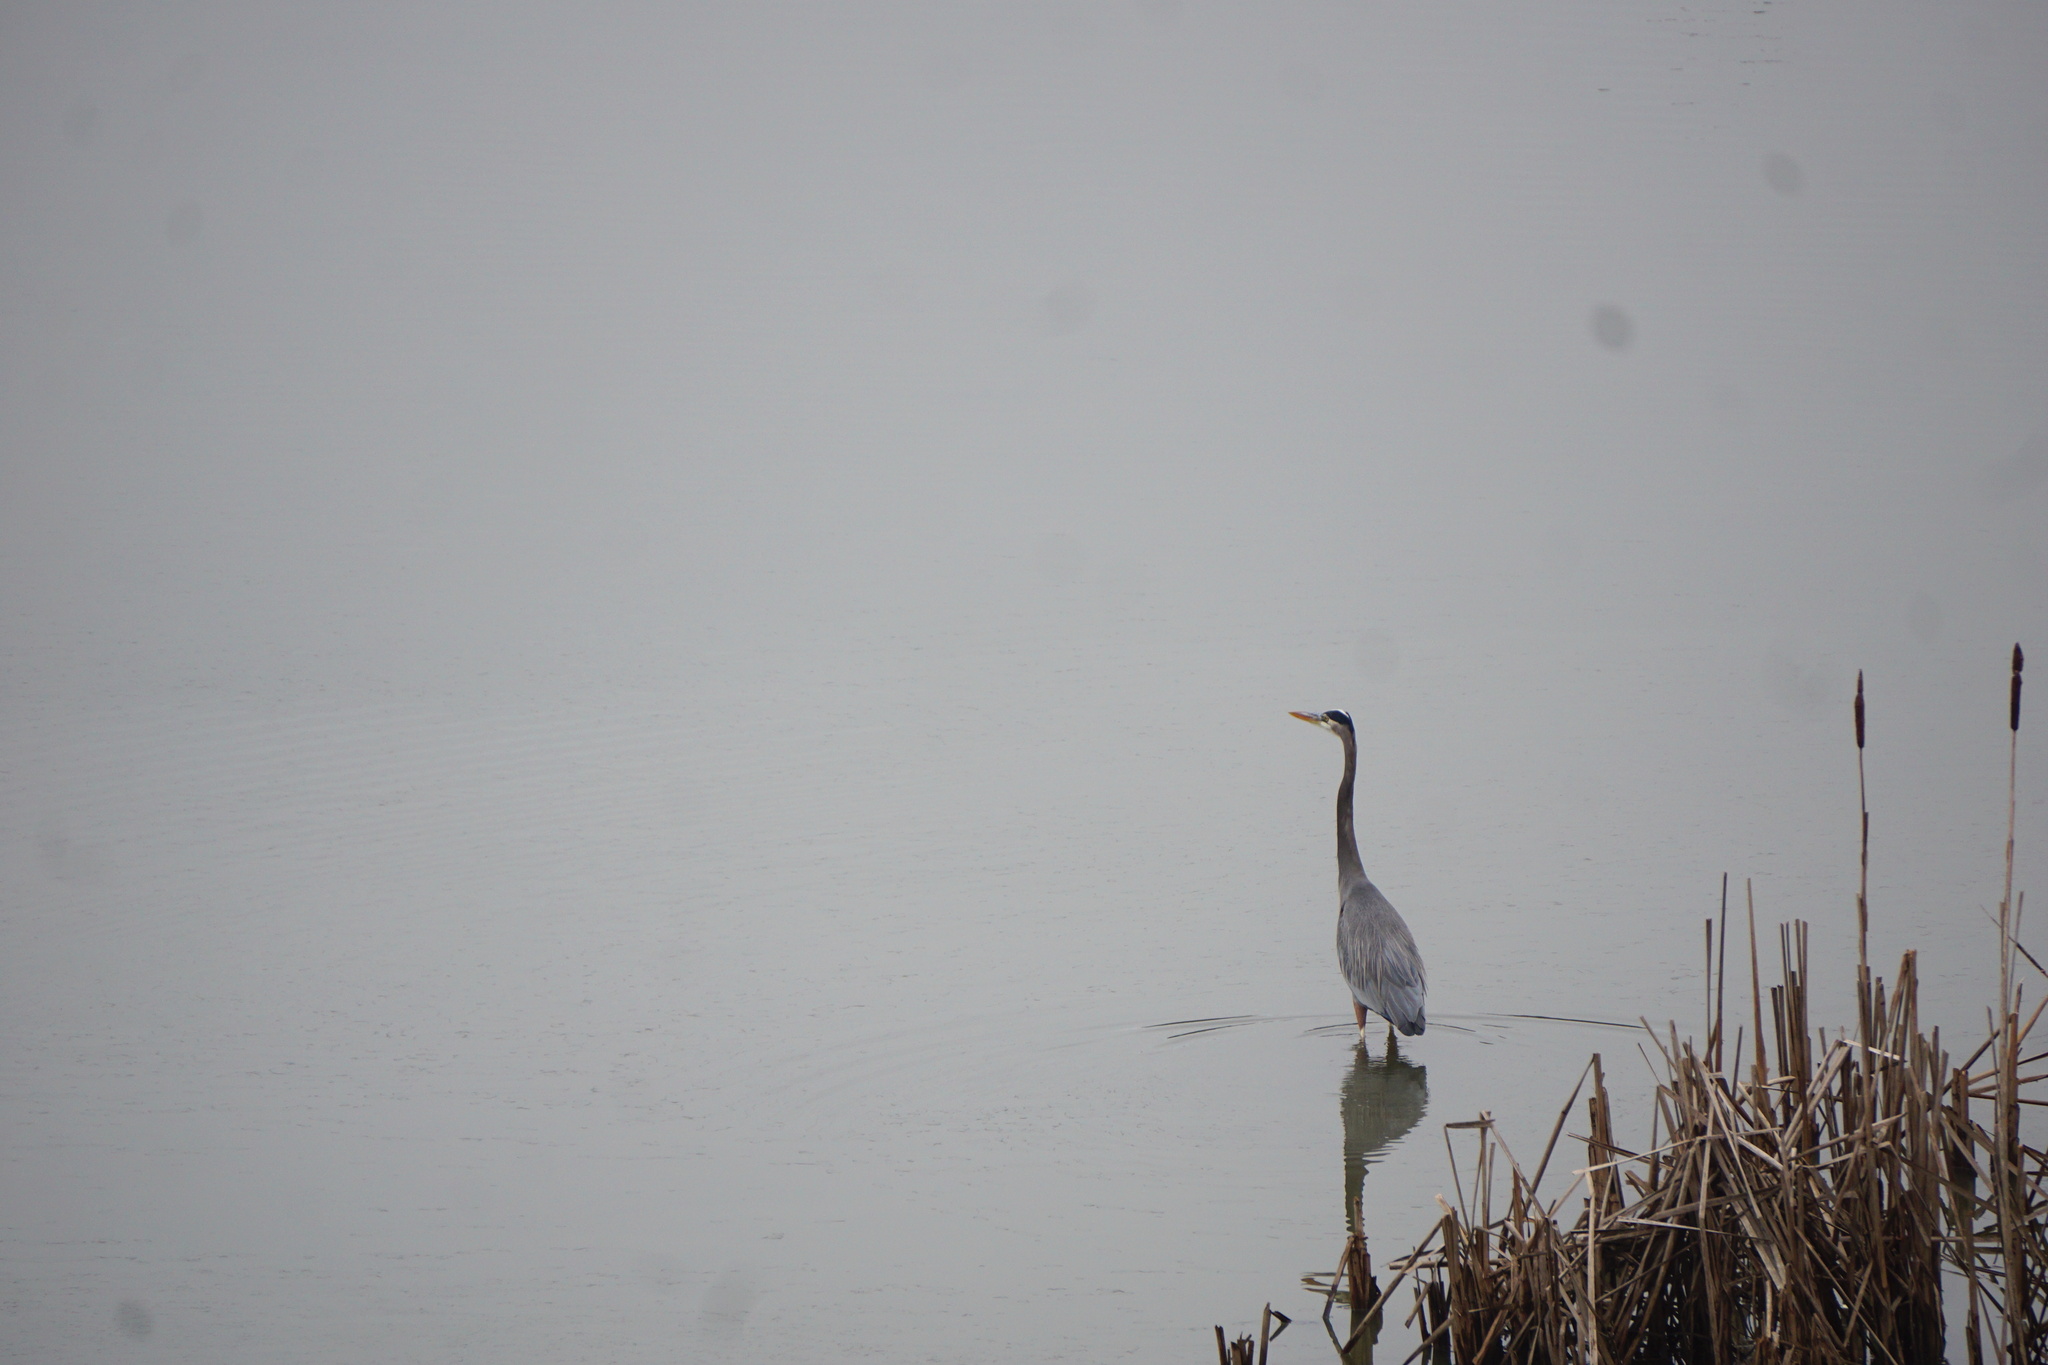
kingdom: Animalia
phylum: Chordata
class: Aves
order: Pelecaniformes
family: Ardeidae
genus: Ardea
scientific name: Ardea herodias
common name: Great blue heron
